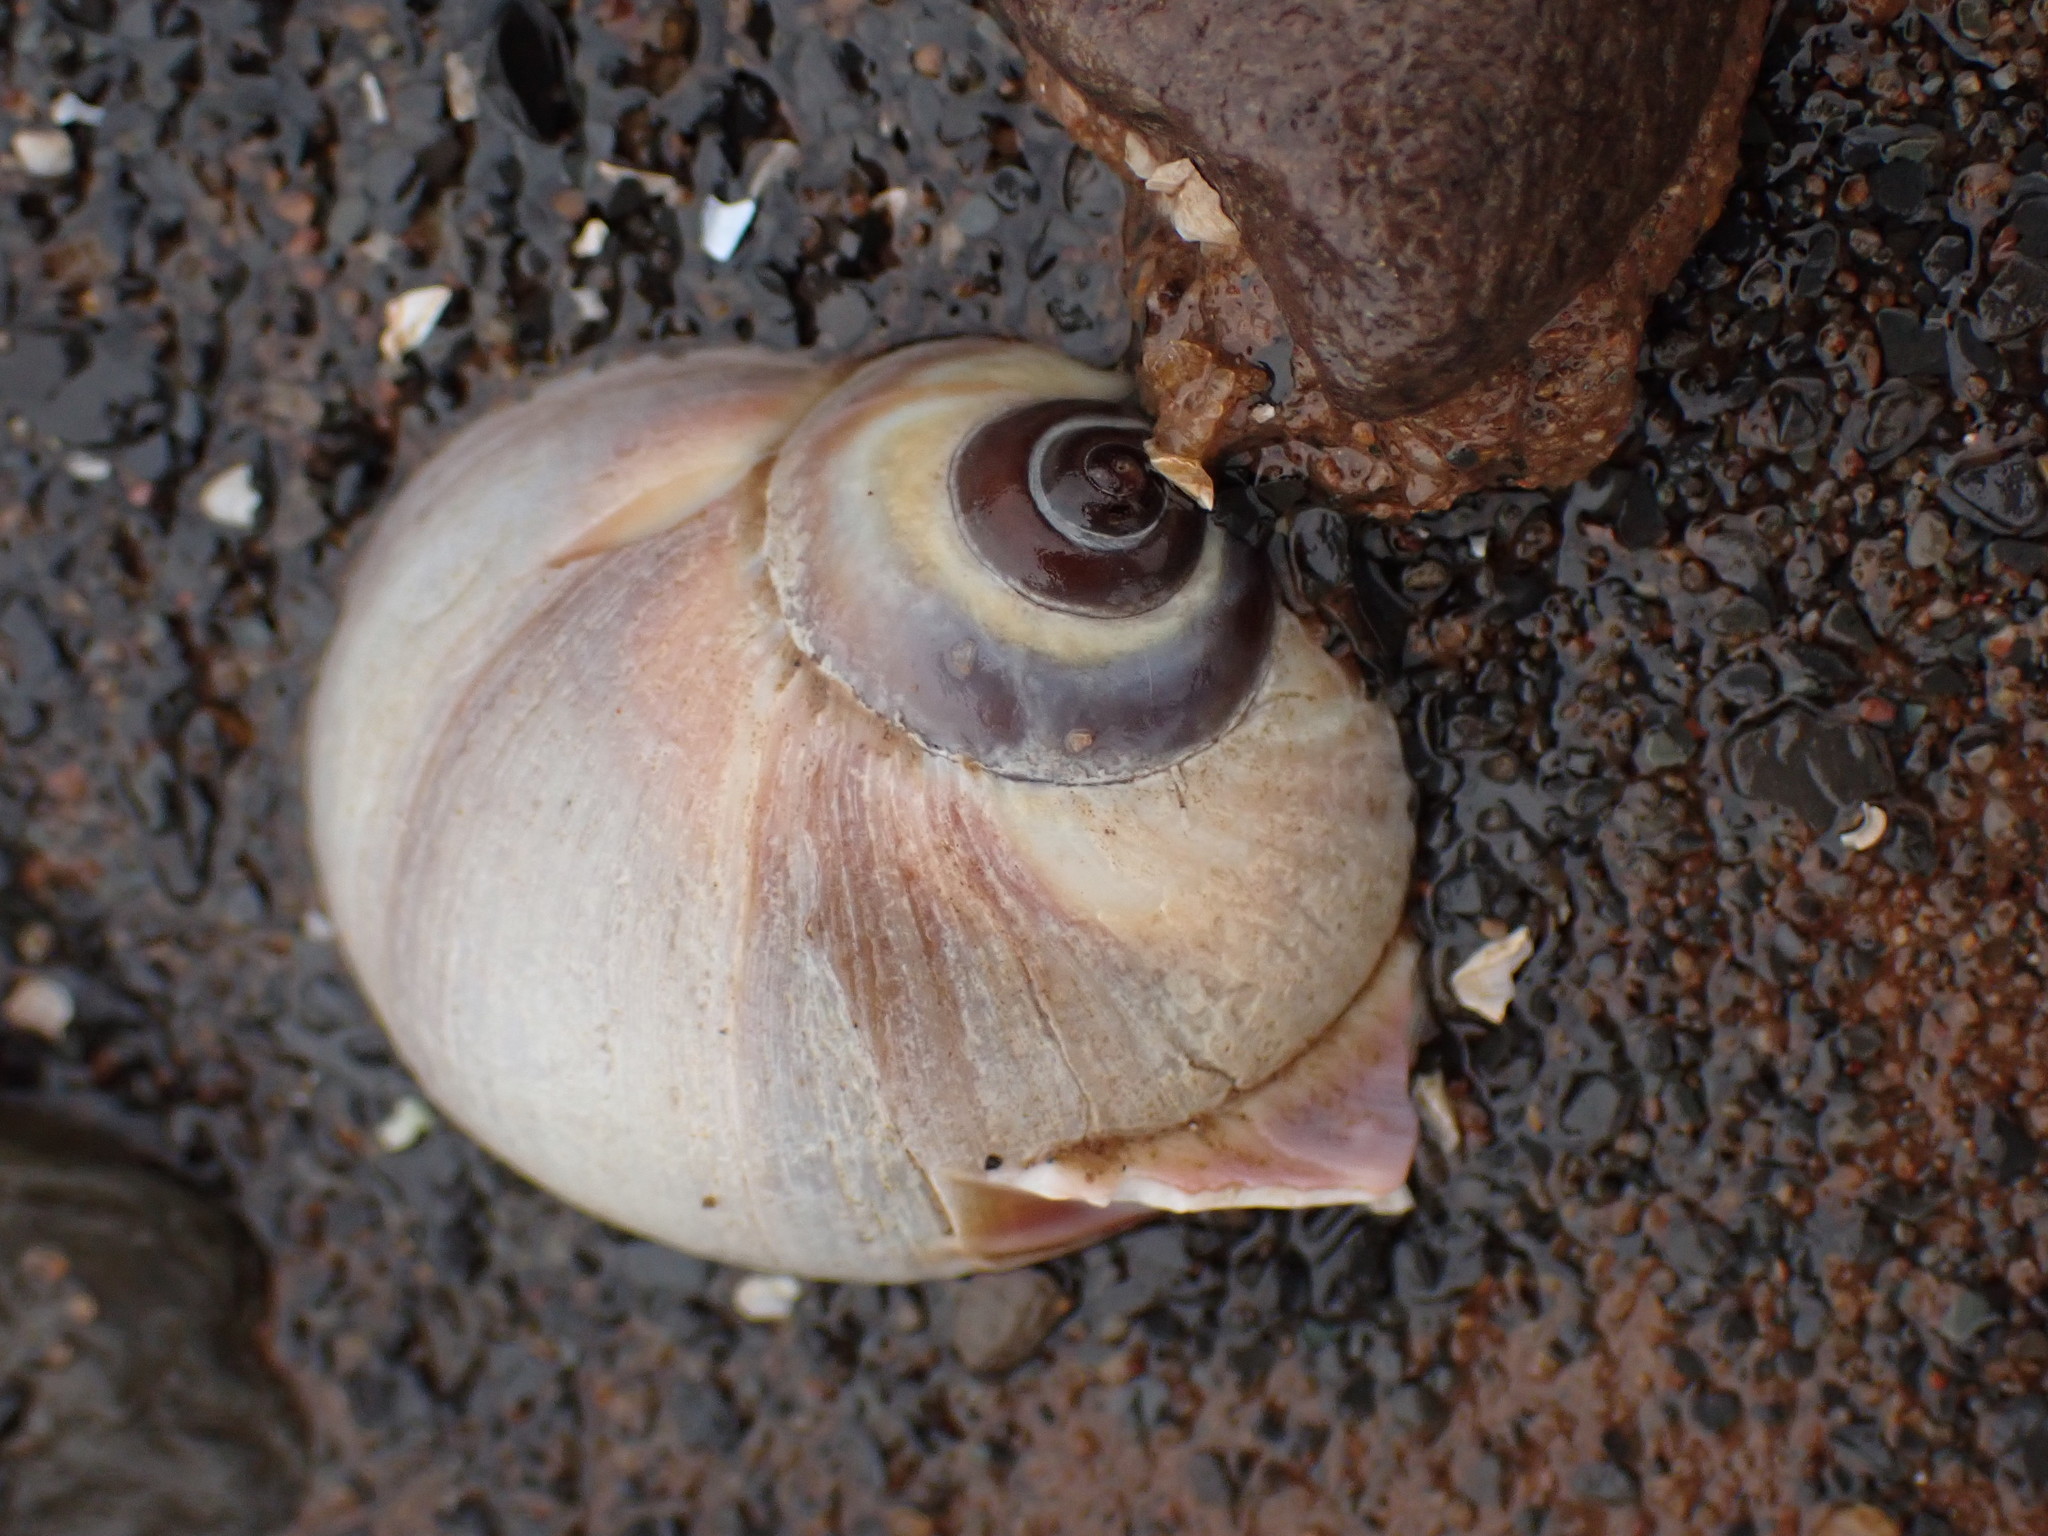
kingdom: Animalia
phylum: Mollusca
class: Gastropoda
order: Littorinimorpha
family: Naticidae
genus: Euspira
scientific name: Euspira heros
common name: Common northern moonsnail
